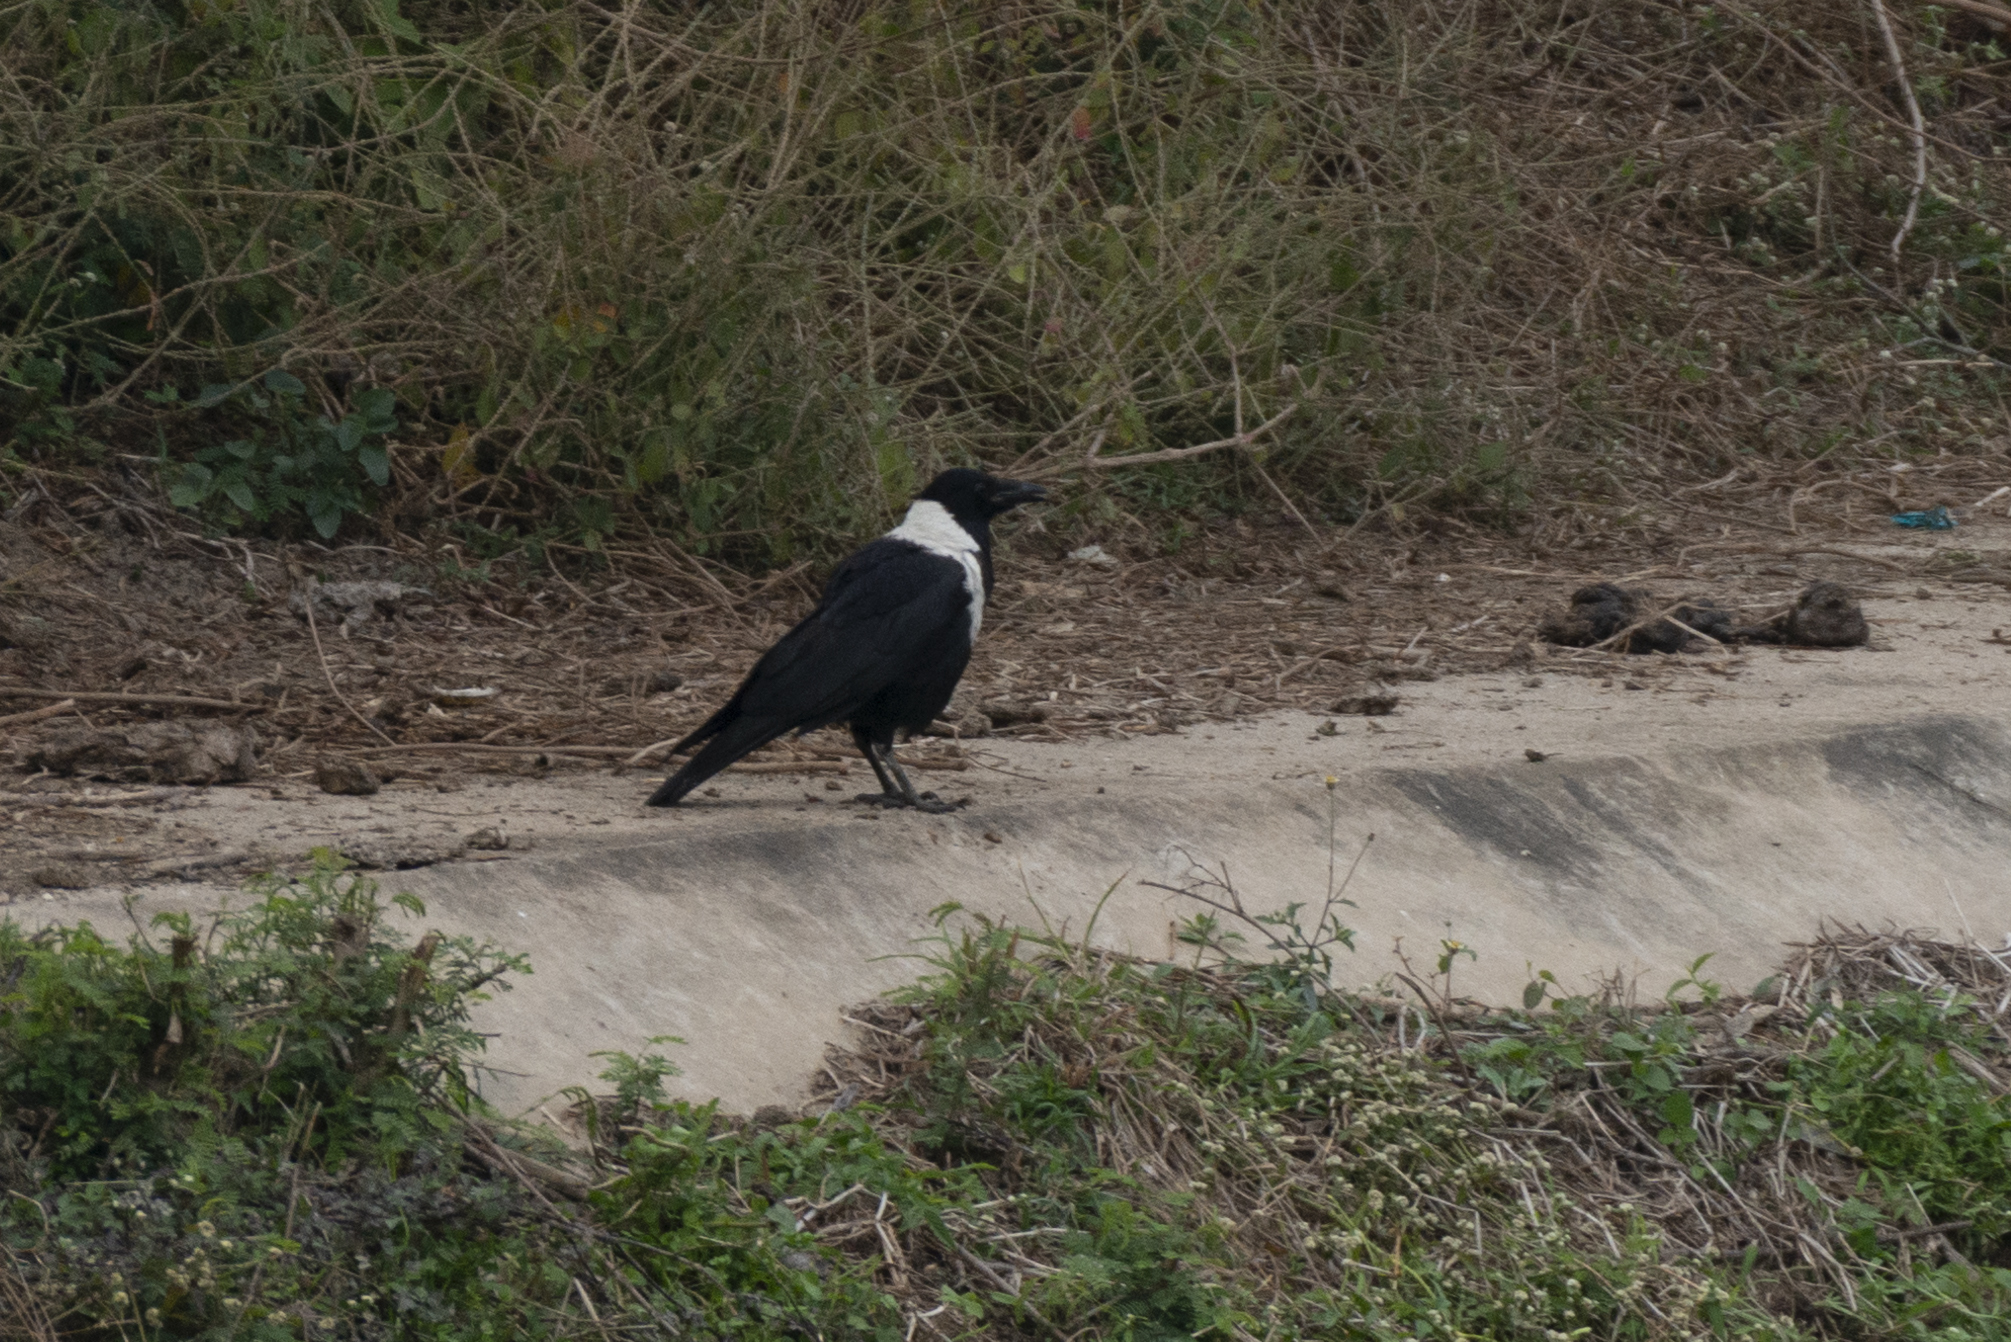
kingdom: Animalia
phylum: Chordata
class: Aves
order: Passeriformes
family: Corvidae
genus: Corvus
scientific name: Corvus pectoralis
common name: Collared crow
